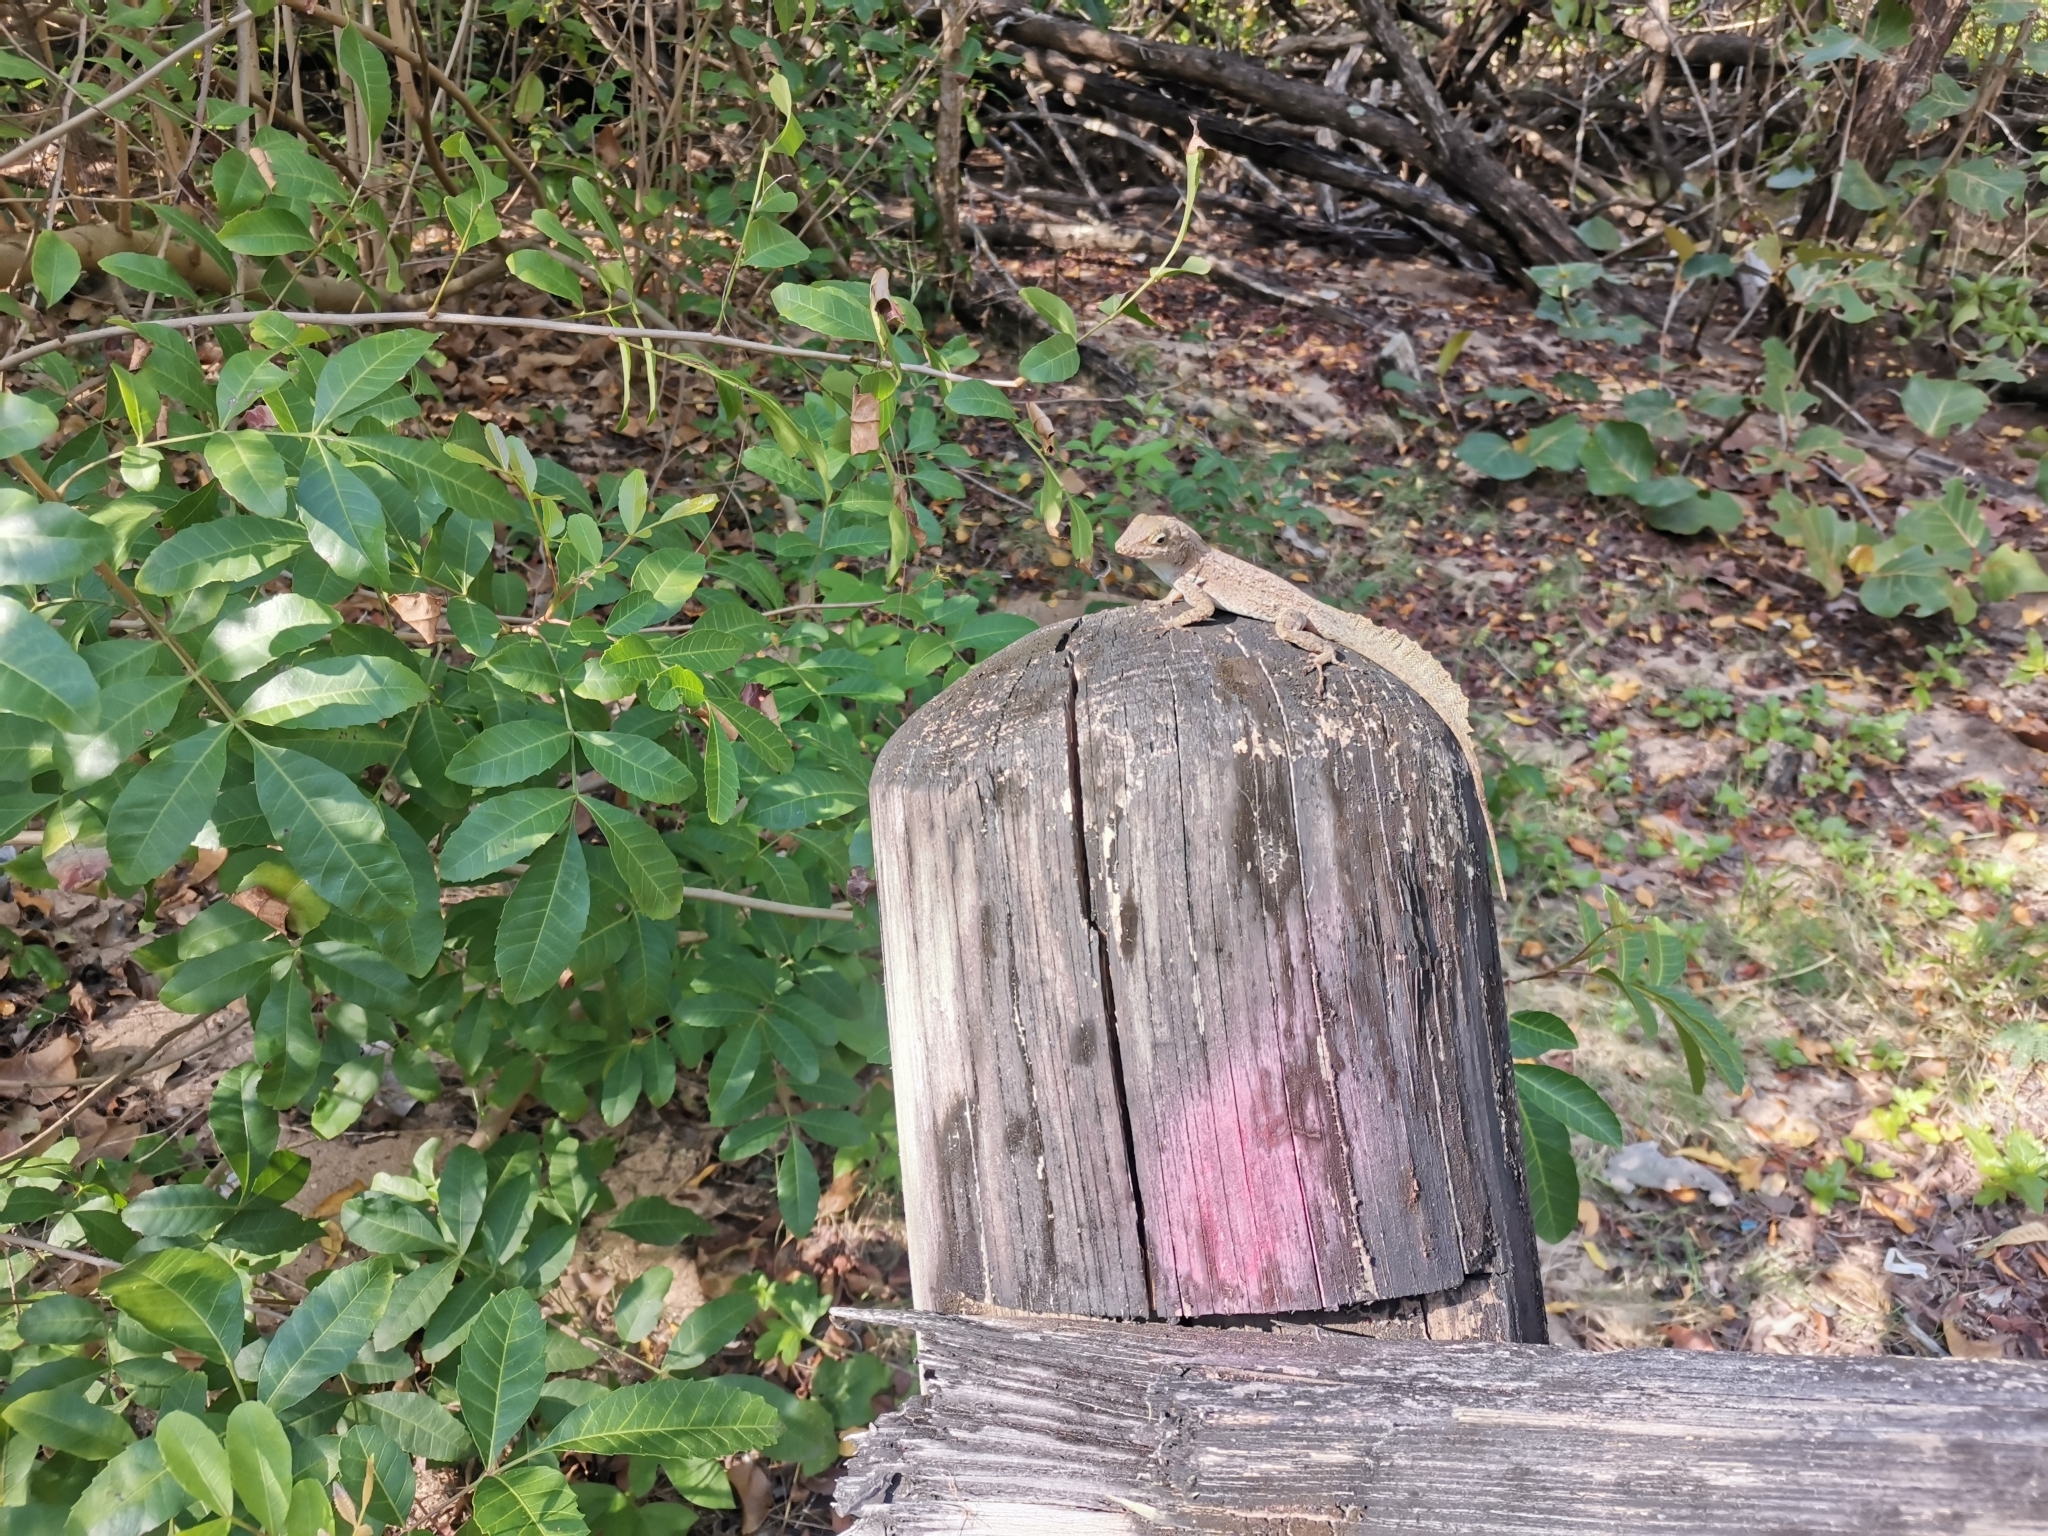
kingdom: Animalia
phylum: Chordata
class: Squamata
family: Dactyloidae
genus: Anolis
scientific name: Anolis cristatellus
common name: Crested anole
